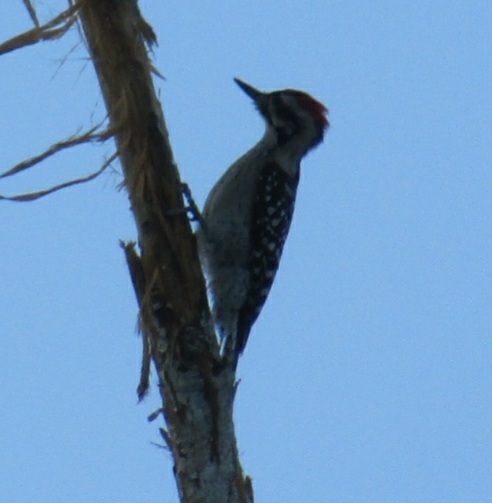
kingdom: Animalia
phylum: Chordata
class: Aves
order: Piciformes
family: Picidae
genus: Dryobates
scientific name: Dryobates scalaris
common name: Ladder-backed woodpecker
